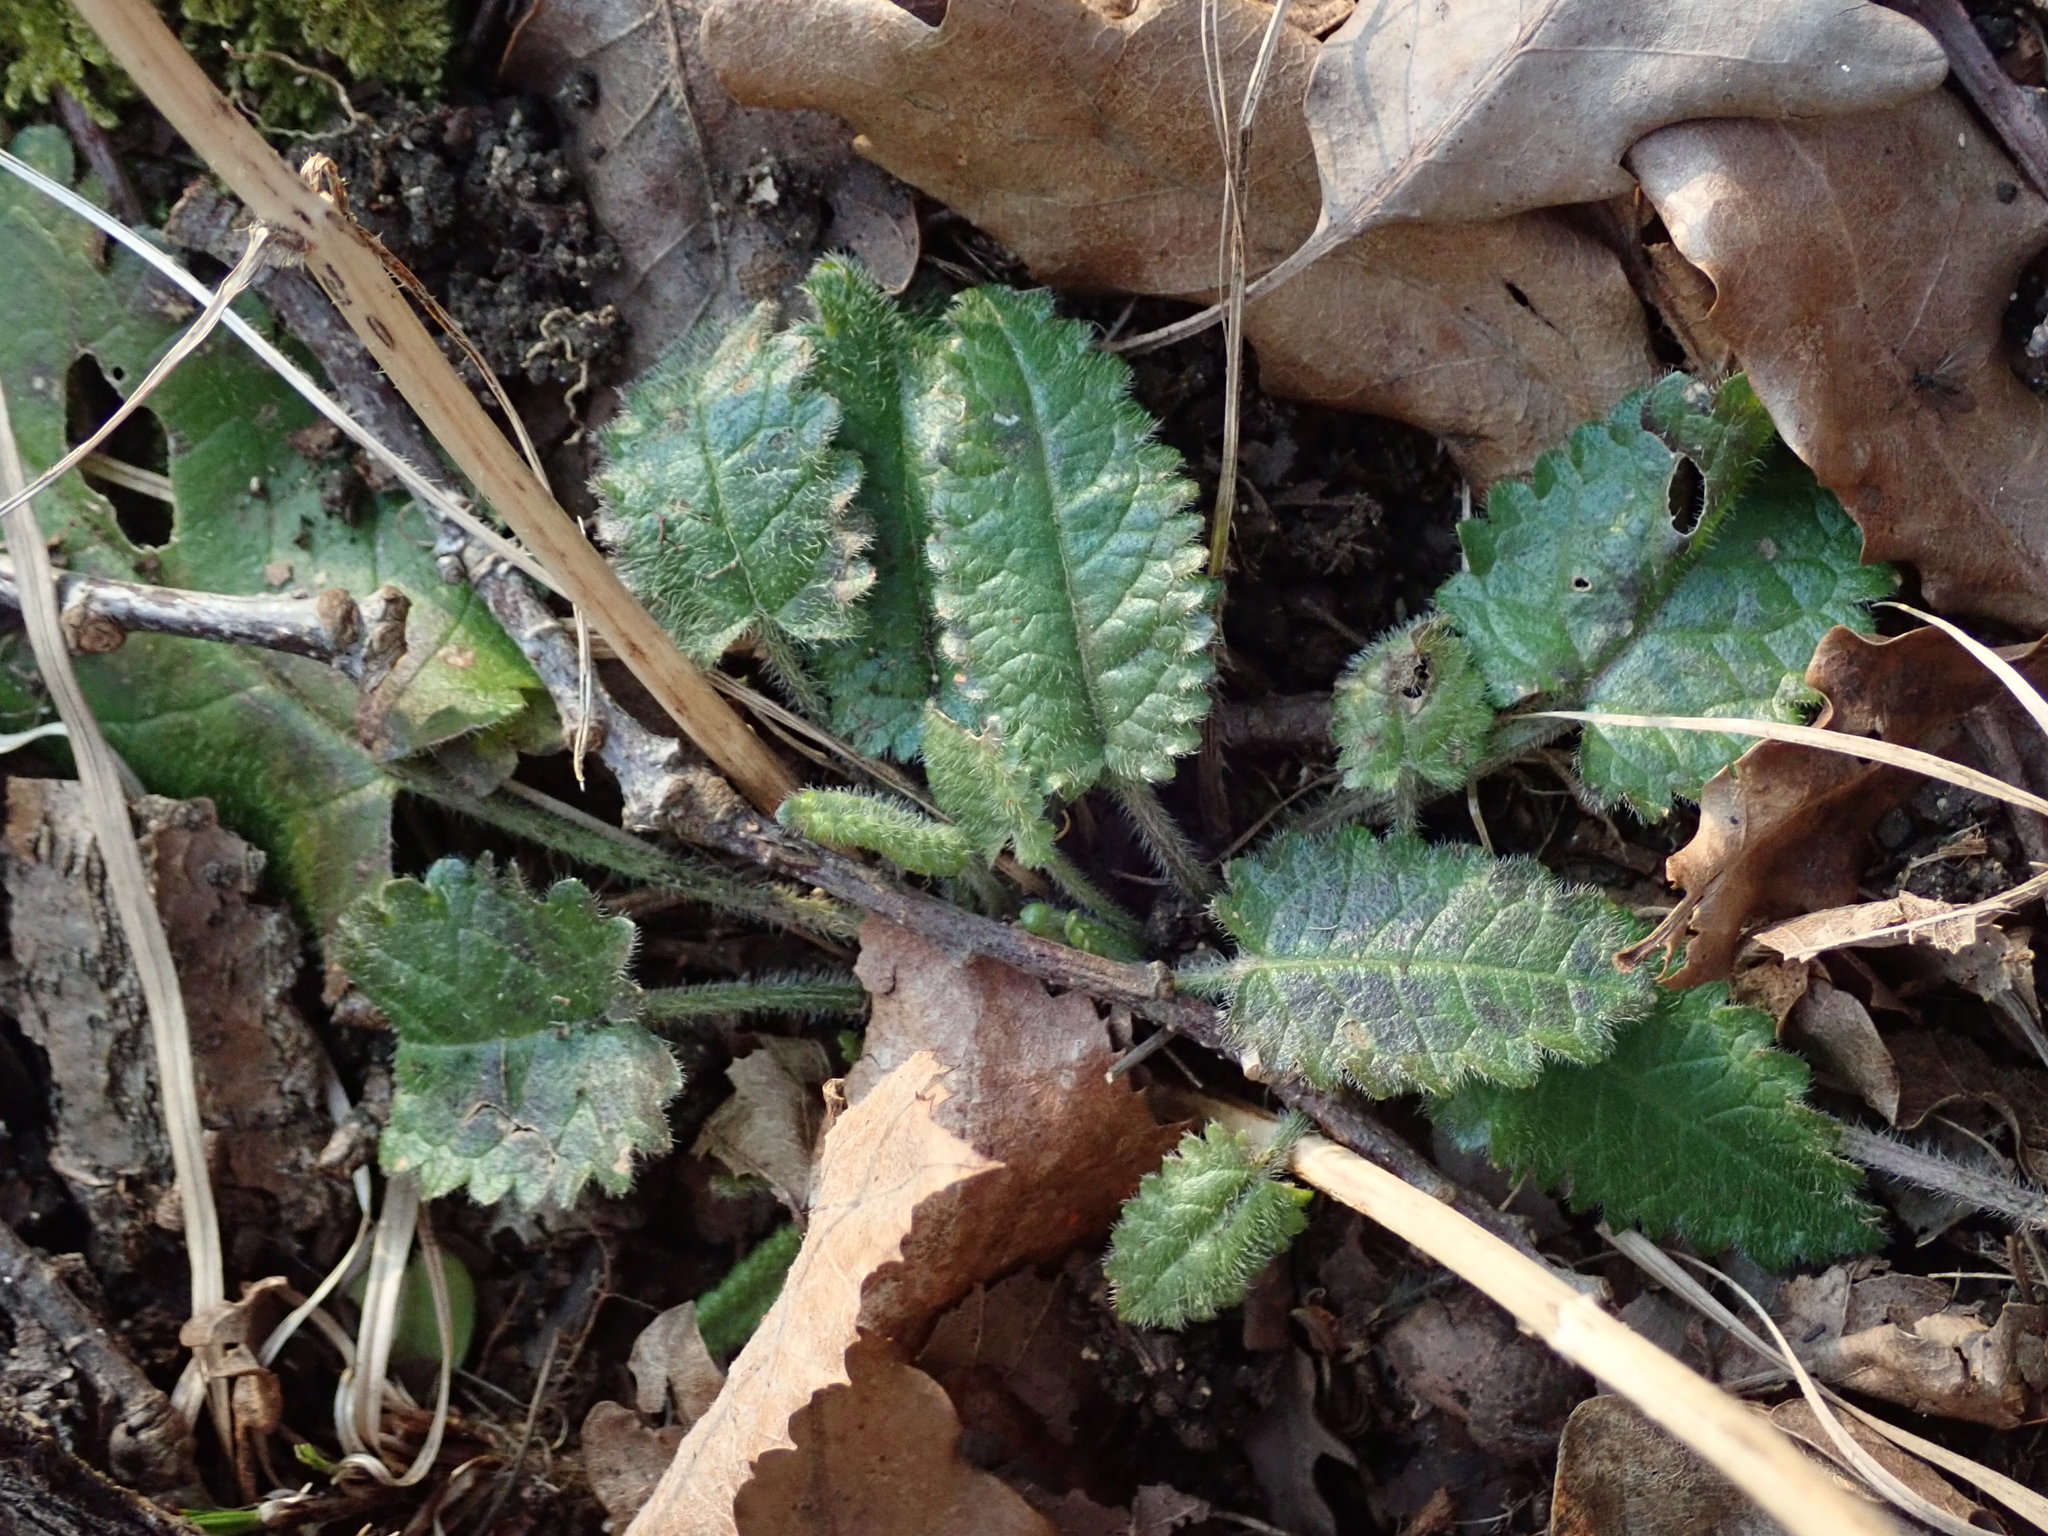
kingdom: Plantae
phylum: Tracheophyta
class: Magnoliopsida
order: Lamiales
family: Lamiaceae
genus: Betonica
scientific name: Betonica officinalis
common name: Bishop's-wort
